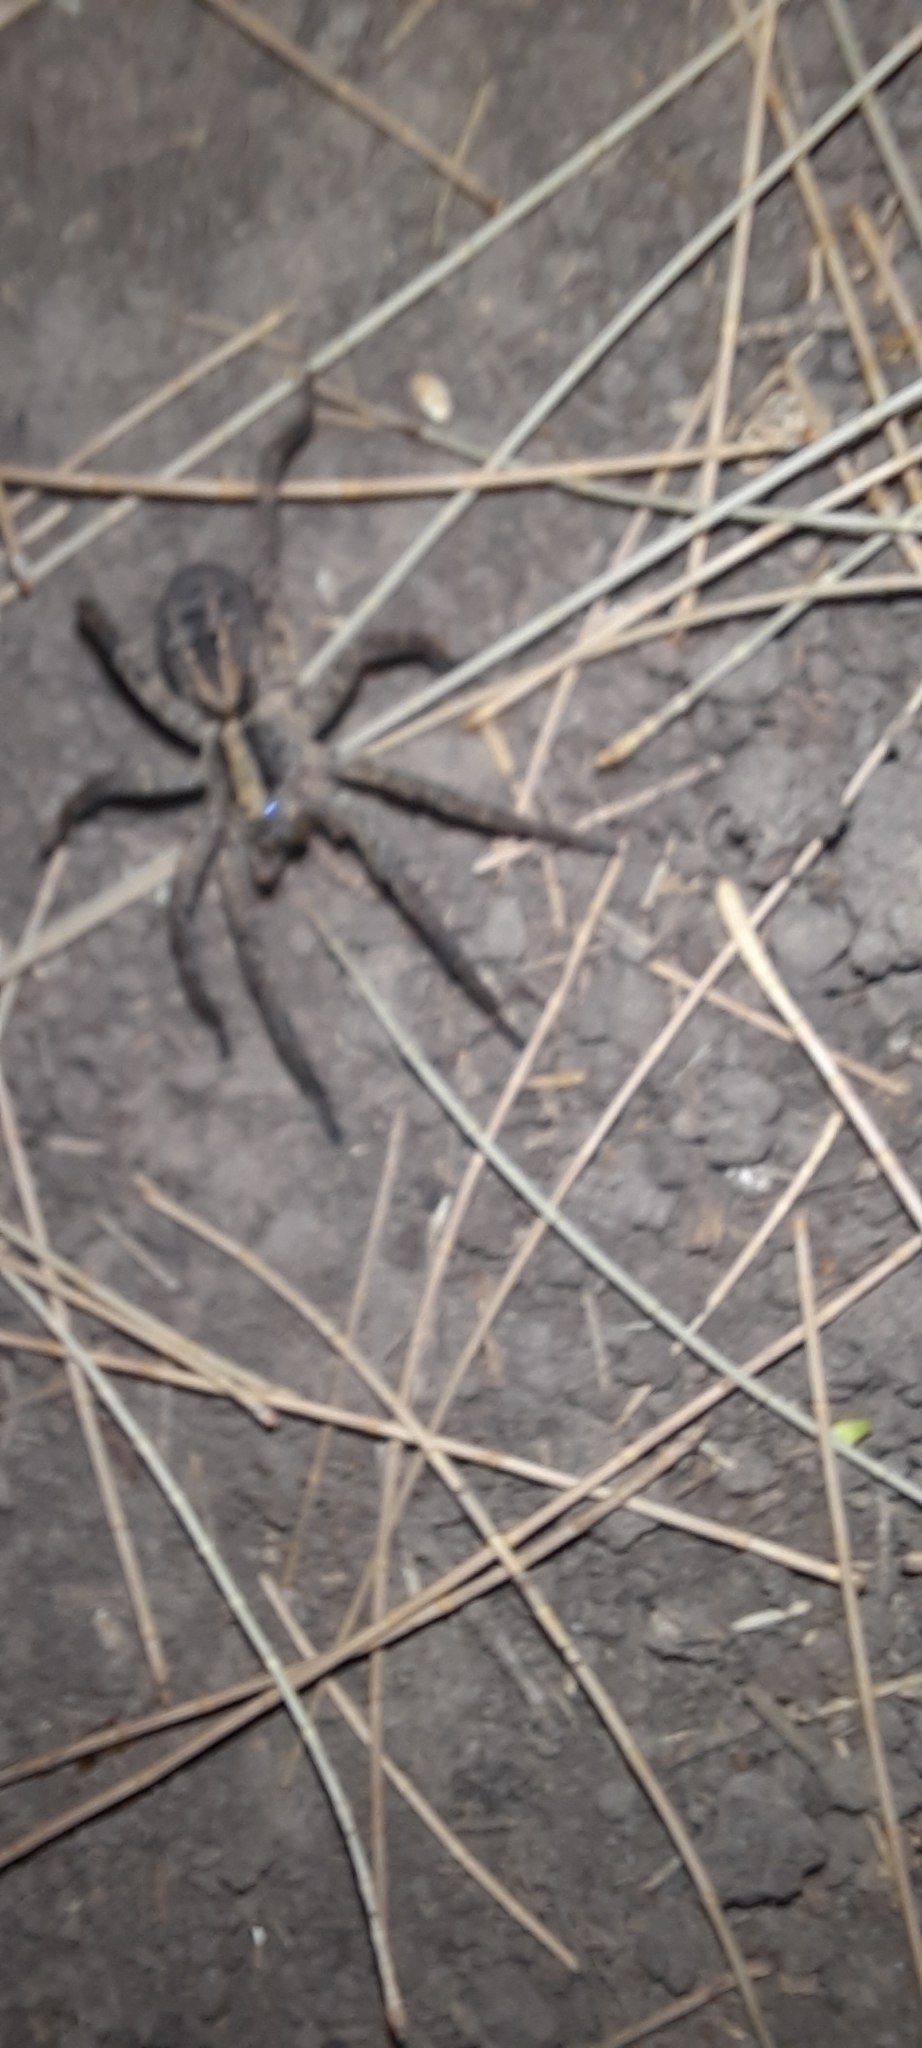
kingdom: Animalia
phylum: Arthropoda
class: Arachnida
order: Araneae
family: Lycosidae
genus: Schizocosa
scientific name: Schizocosa malitiosa
